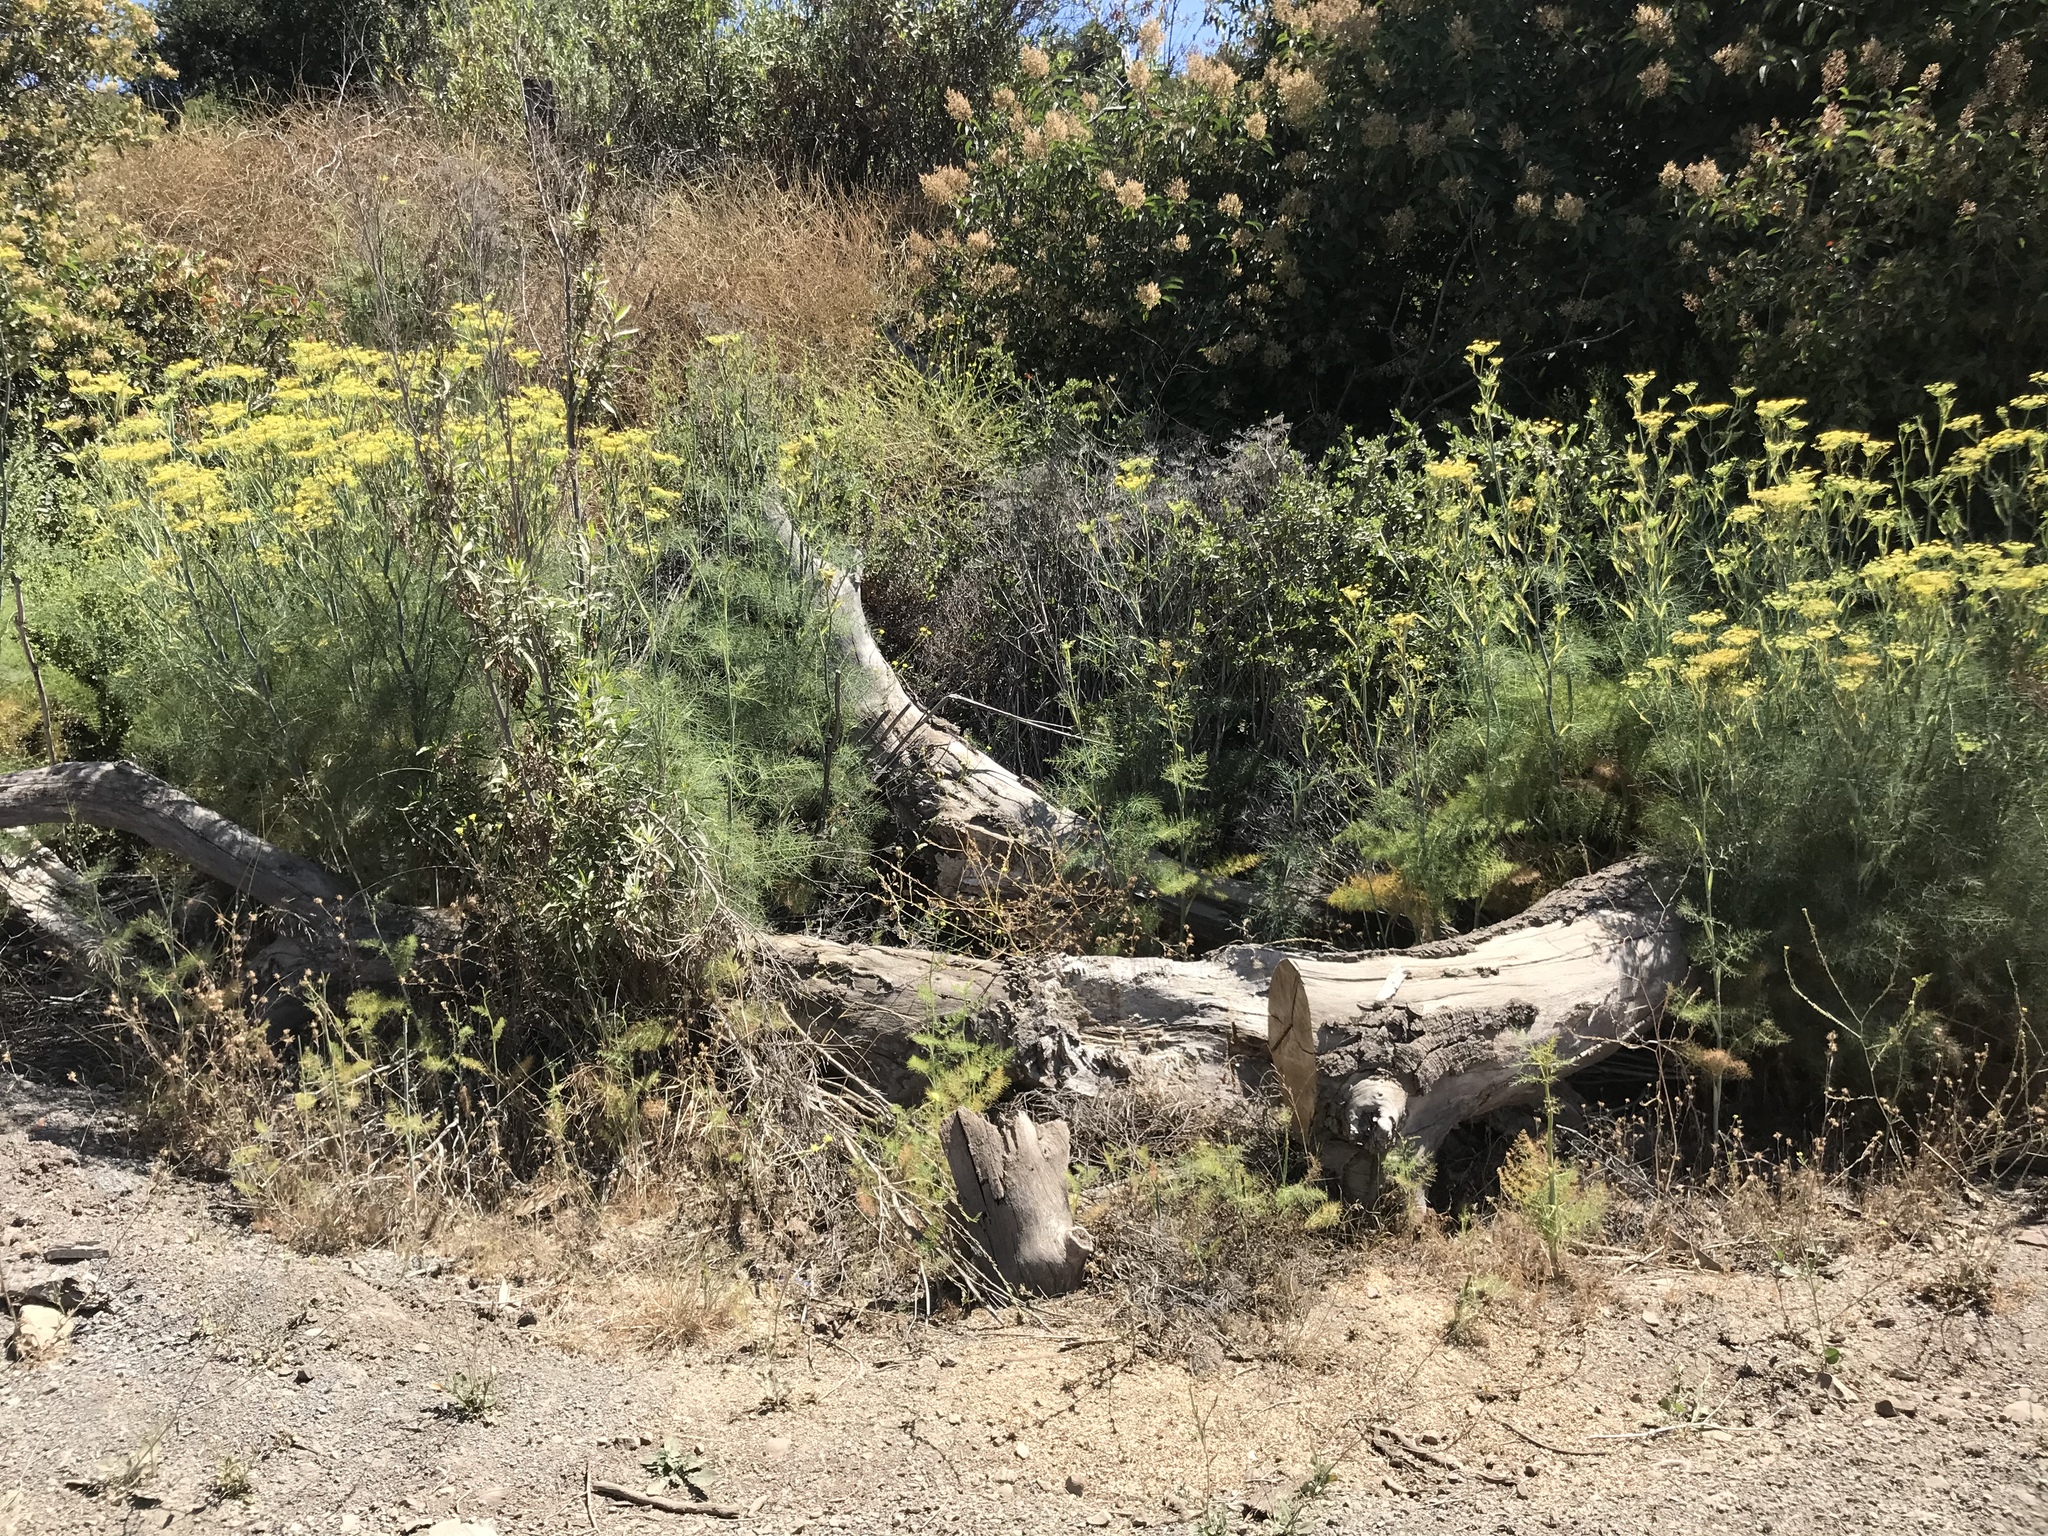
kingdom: Plantae
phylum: Tracheophyta
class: Magnoliopsida
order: Apiales
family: Apiaceae
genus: Foeniculum
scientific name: Foeniculum vulgare
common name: Fennel
